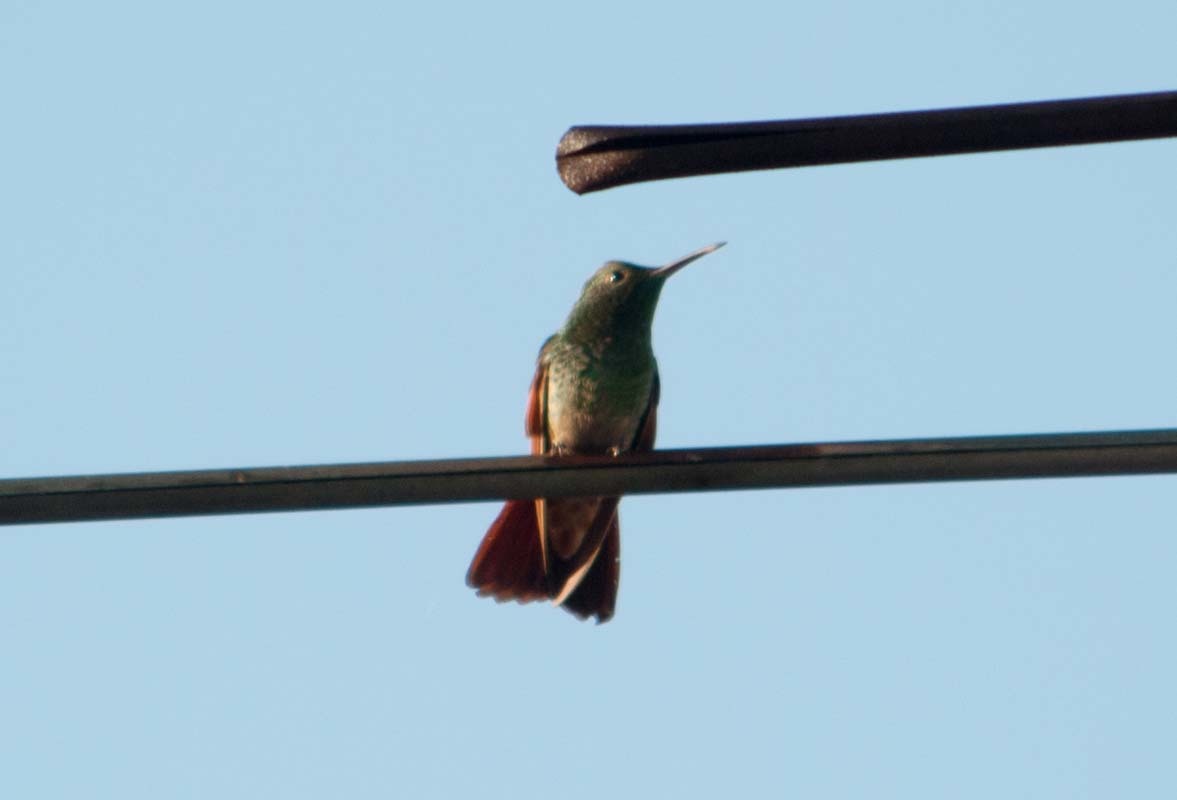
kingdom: Animalia
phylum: Chordata
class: Aves
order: Apodiformes
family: Trochilidae
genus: Saucerottia
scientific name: Saucerottia beryllina
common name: Berylline hummingbird
